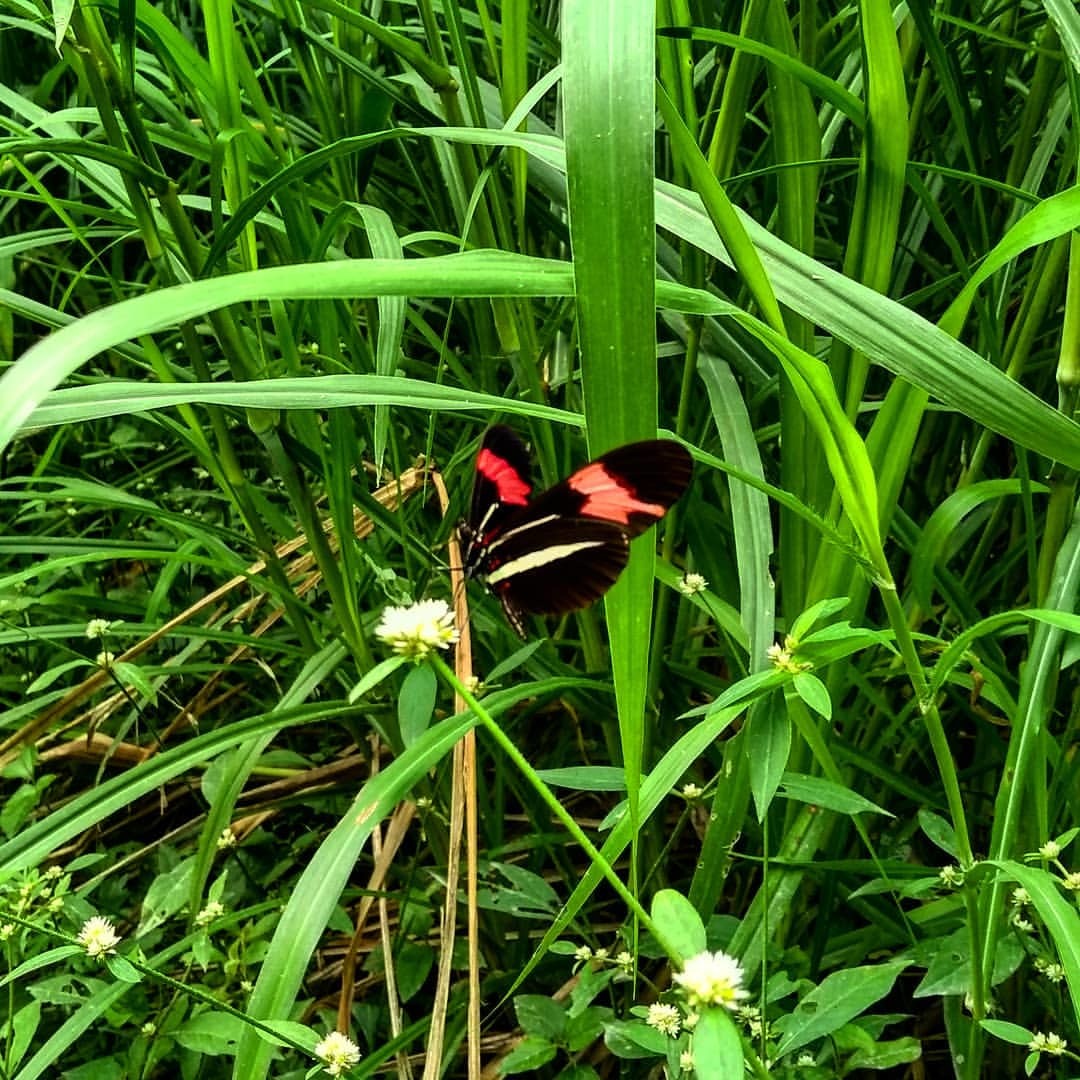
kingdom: Animalia
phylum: Arthropoda
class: Insecta
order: Lepidoptera
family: Nymphalidae
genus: Heliconius
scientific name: Heliconius erato
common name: Common patch longwing
